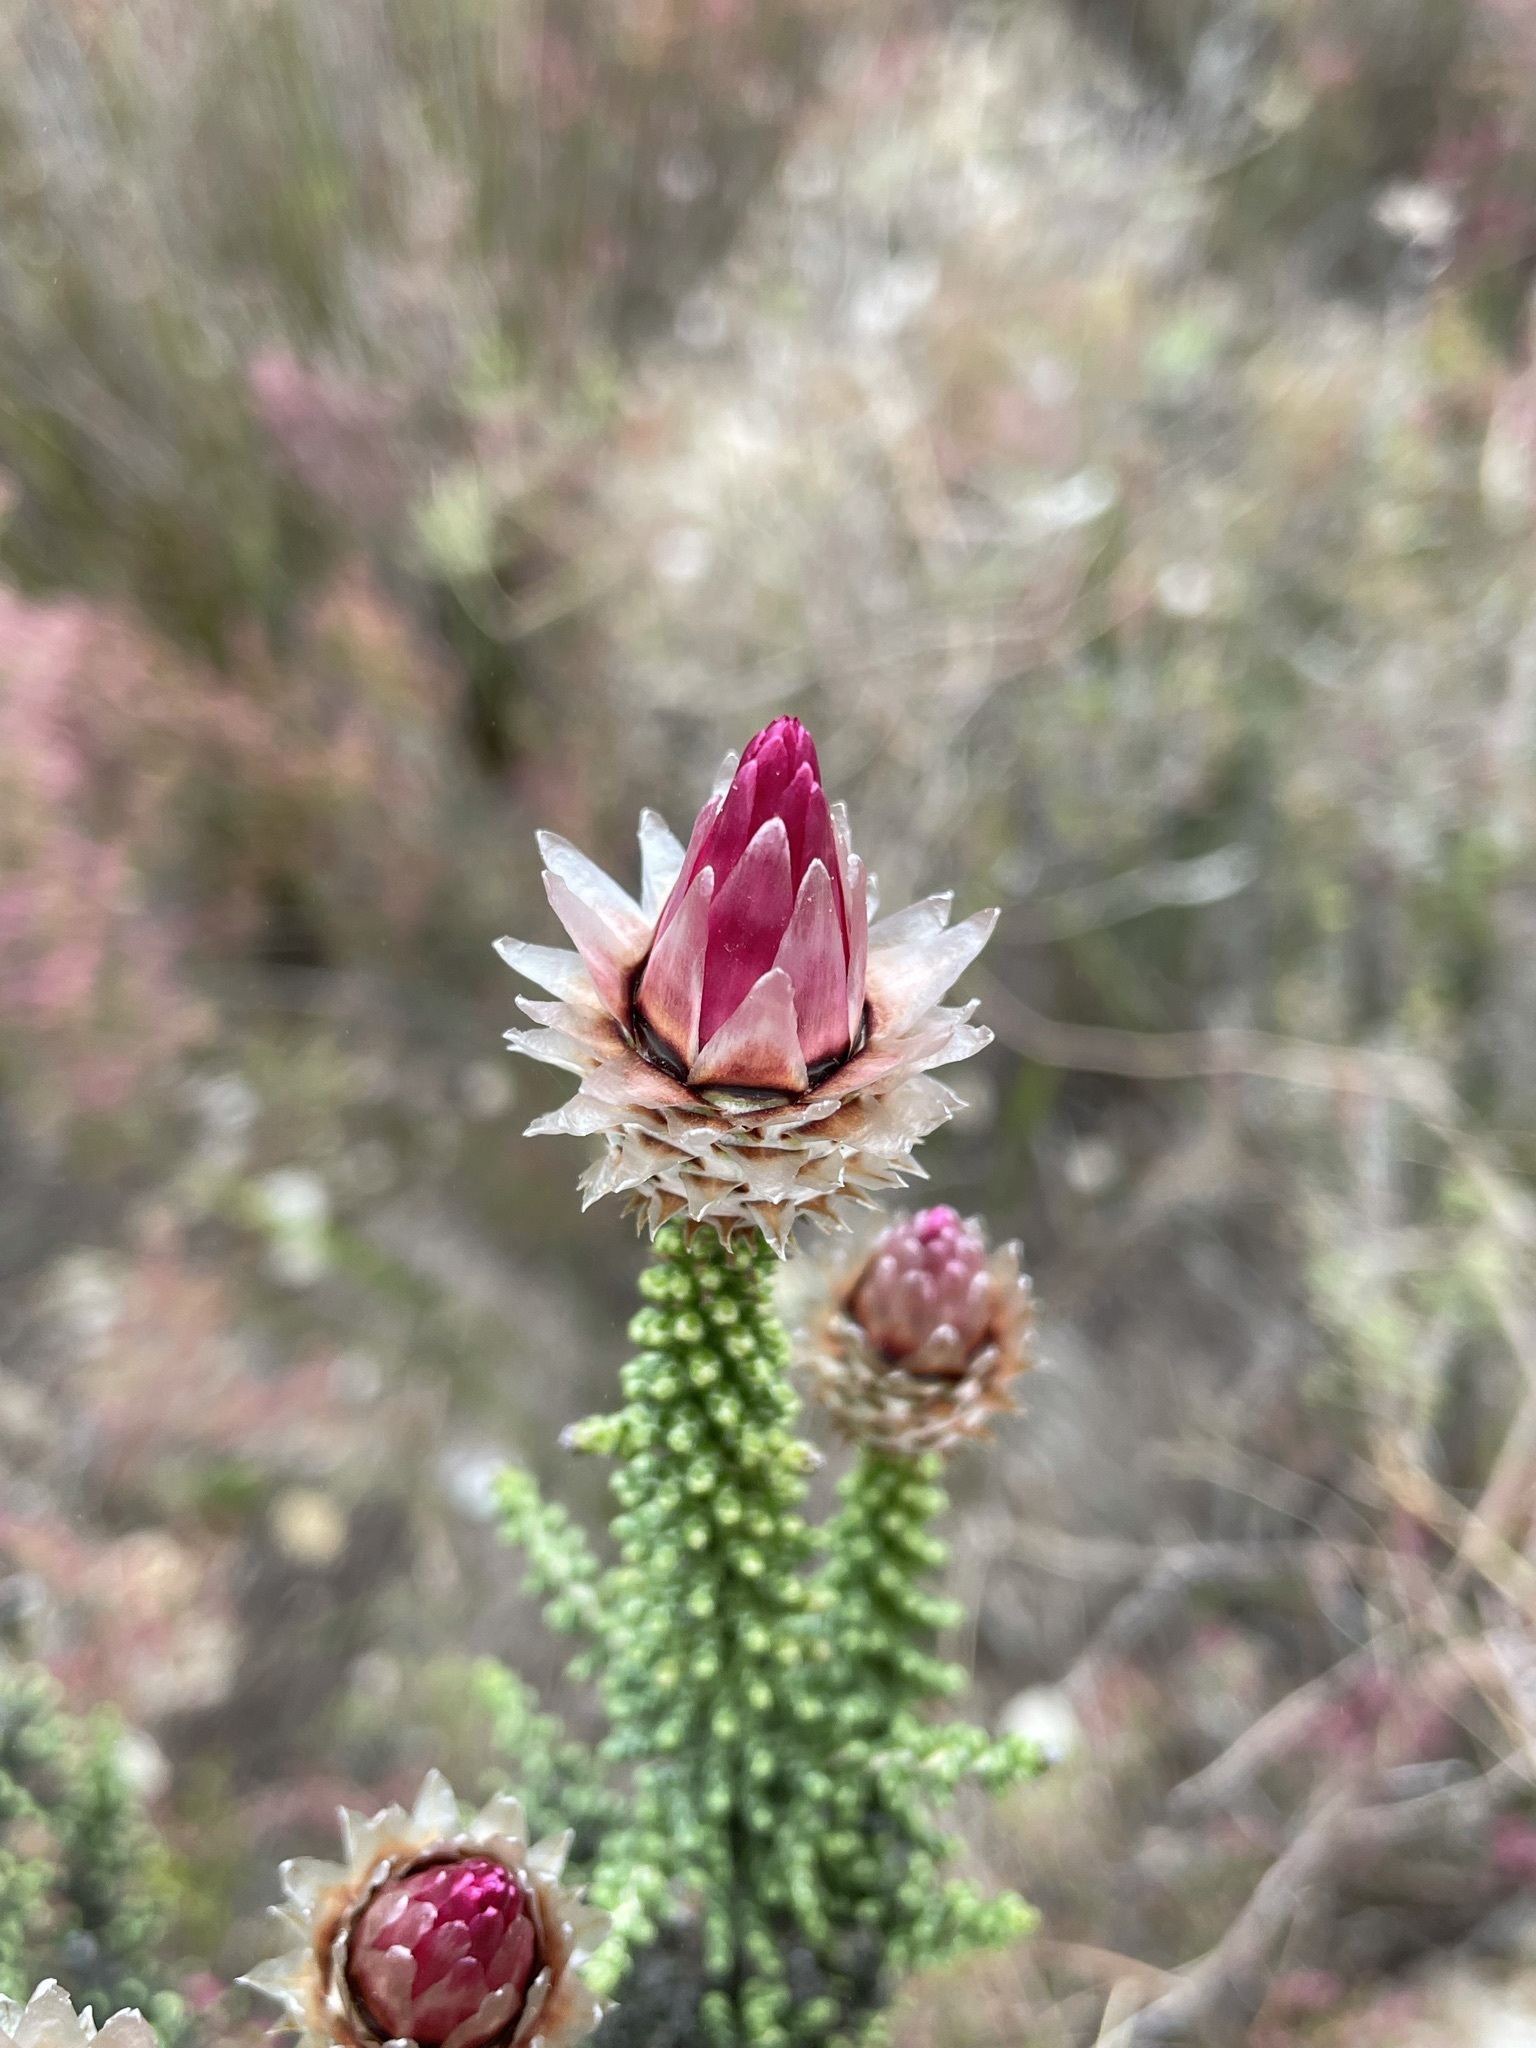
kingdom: Plantae
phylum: Tracheophyta
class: Magnoliopsida
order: Asterales
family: Asteraceae
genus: Phaenocoma
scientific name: Phaenocoma prolifera
